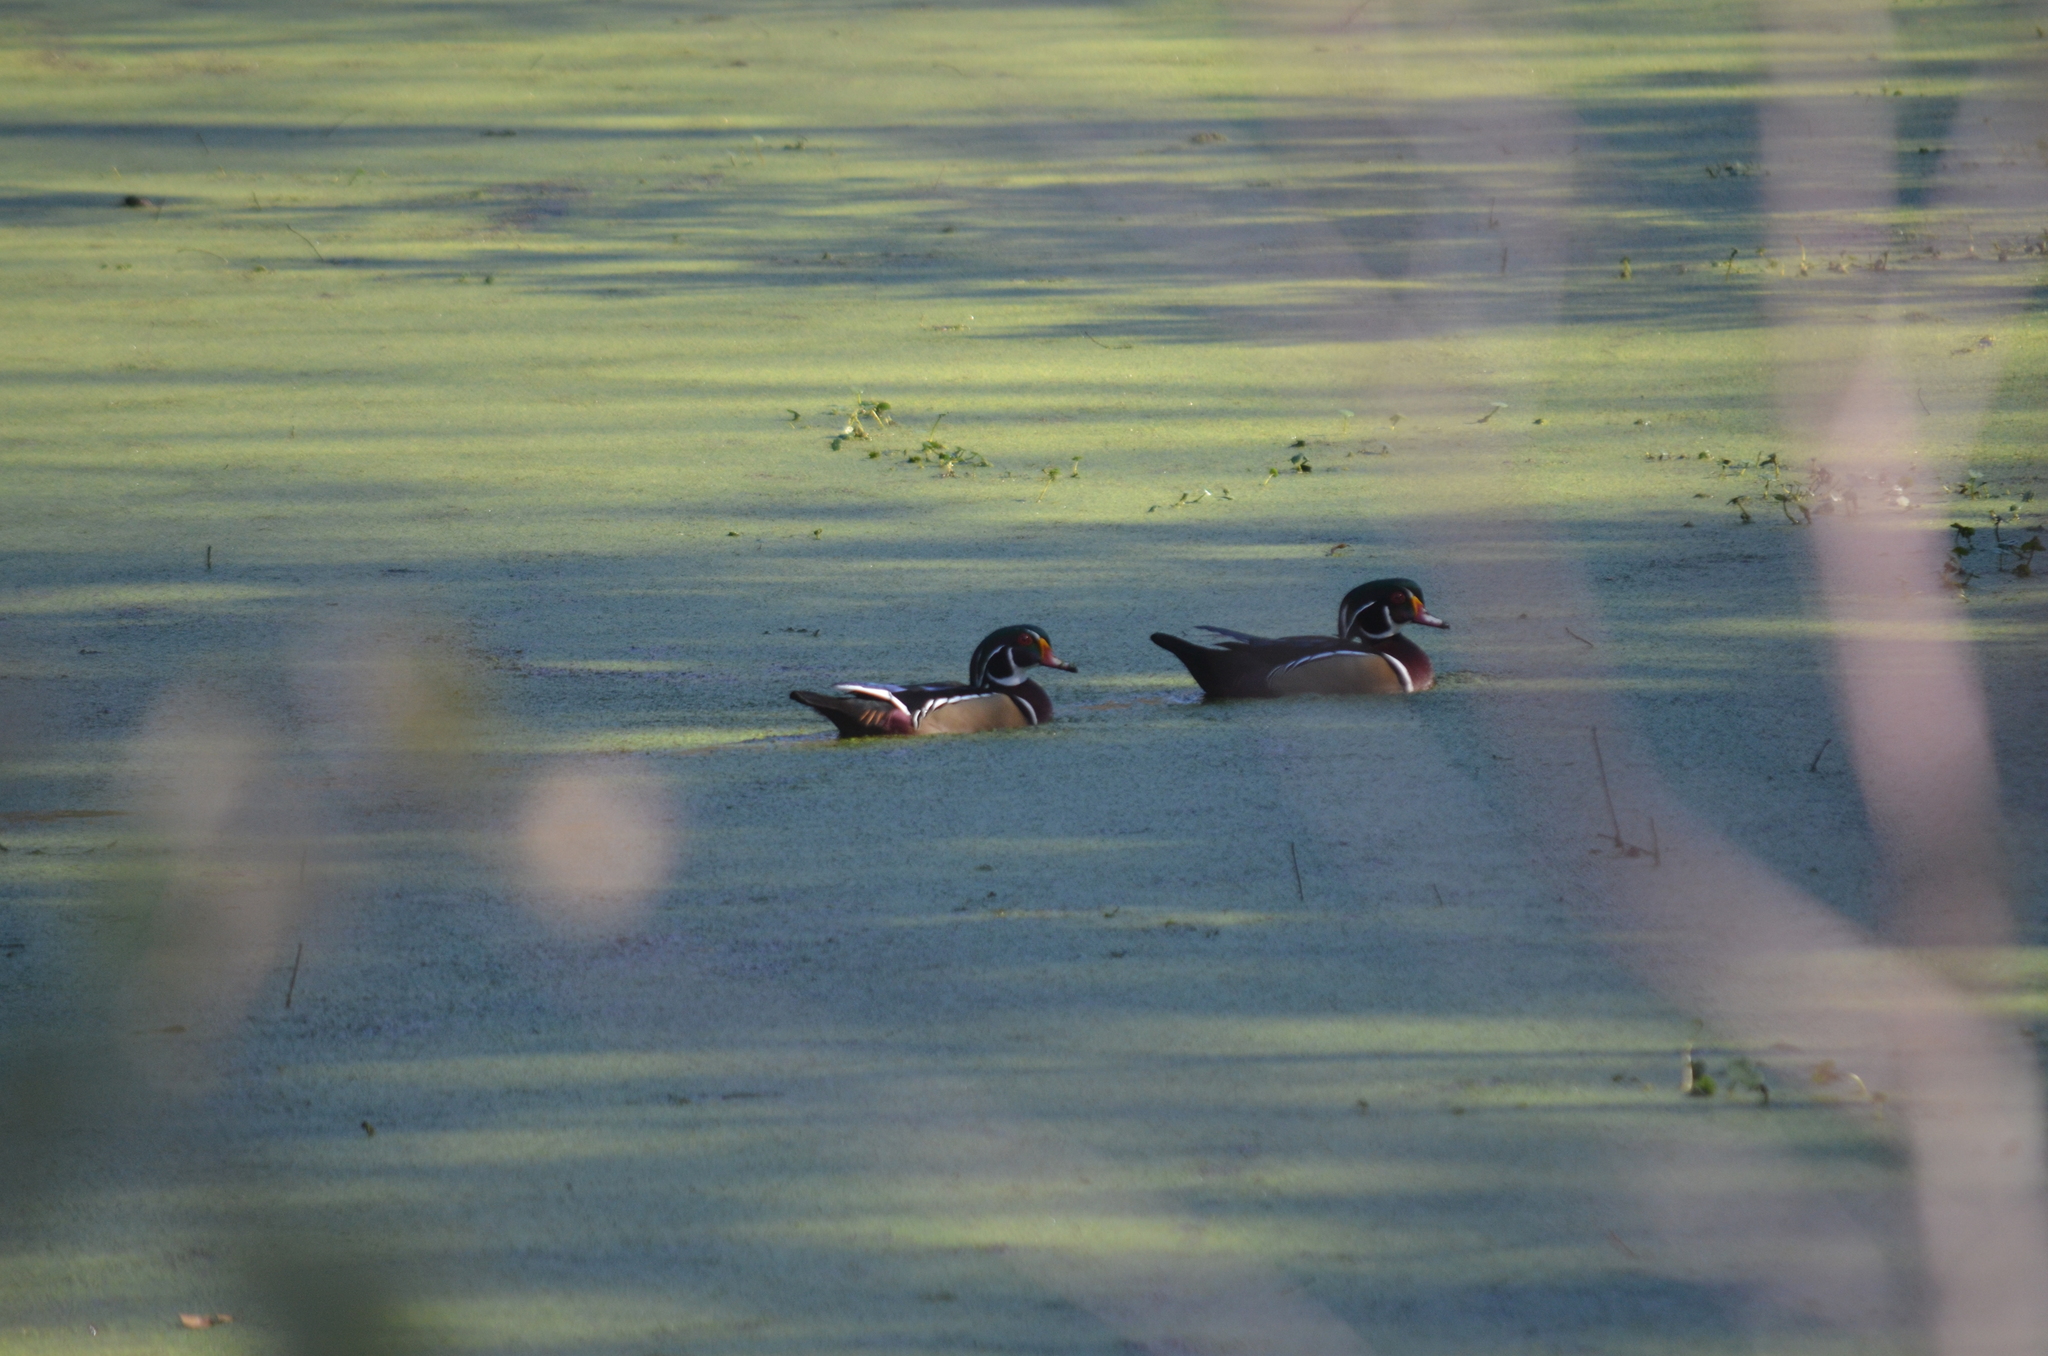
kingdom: Animalia
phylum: Chordata
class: Aves
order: Anseriformes
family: Anatidae
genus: Aix
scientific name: Aix sponsa
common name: Wood duck
